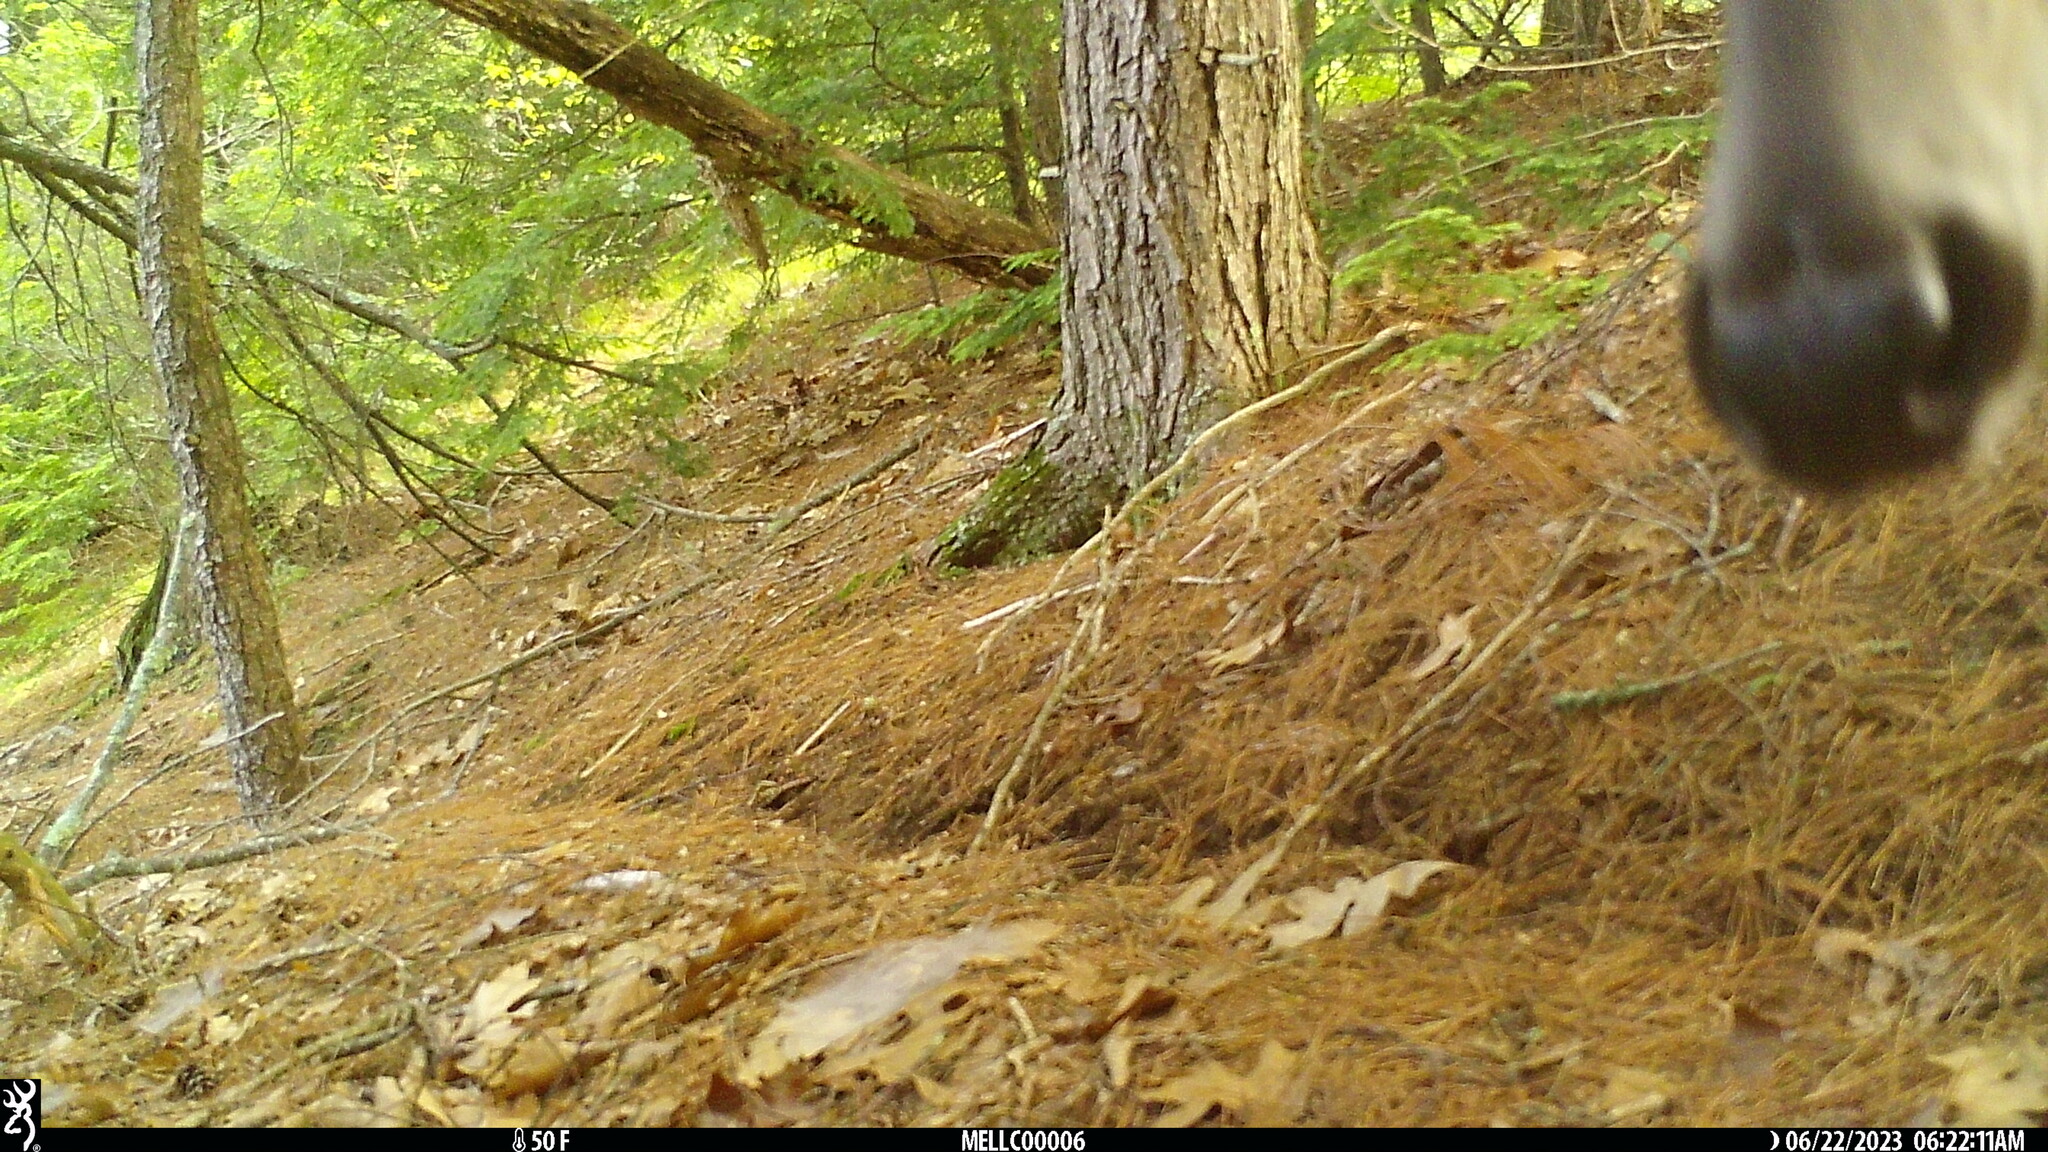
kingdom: Animalia
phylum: Chordata
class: Mammalia
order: Artiodactyla
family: Cervidae
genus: Odocoileus
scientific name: Odocoileus virginianus
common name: White-tailed deer
